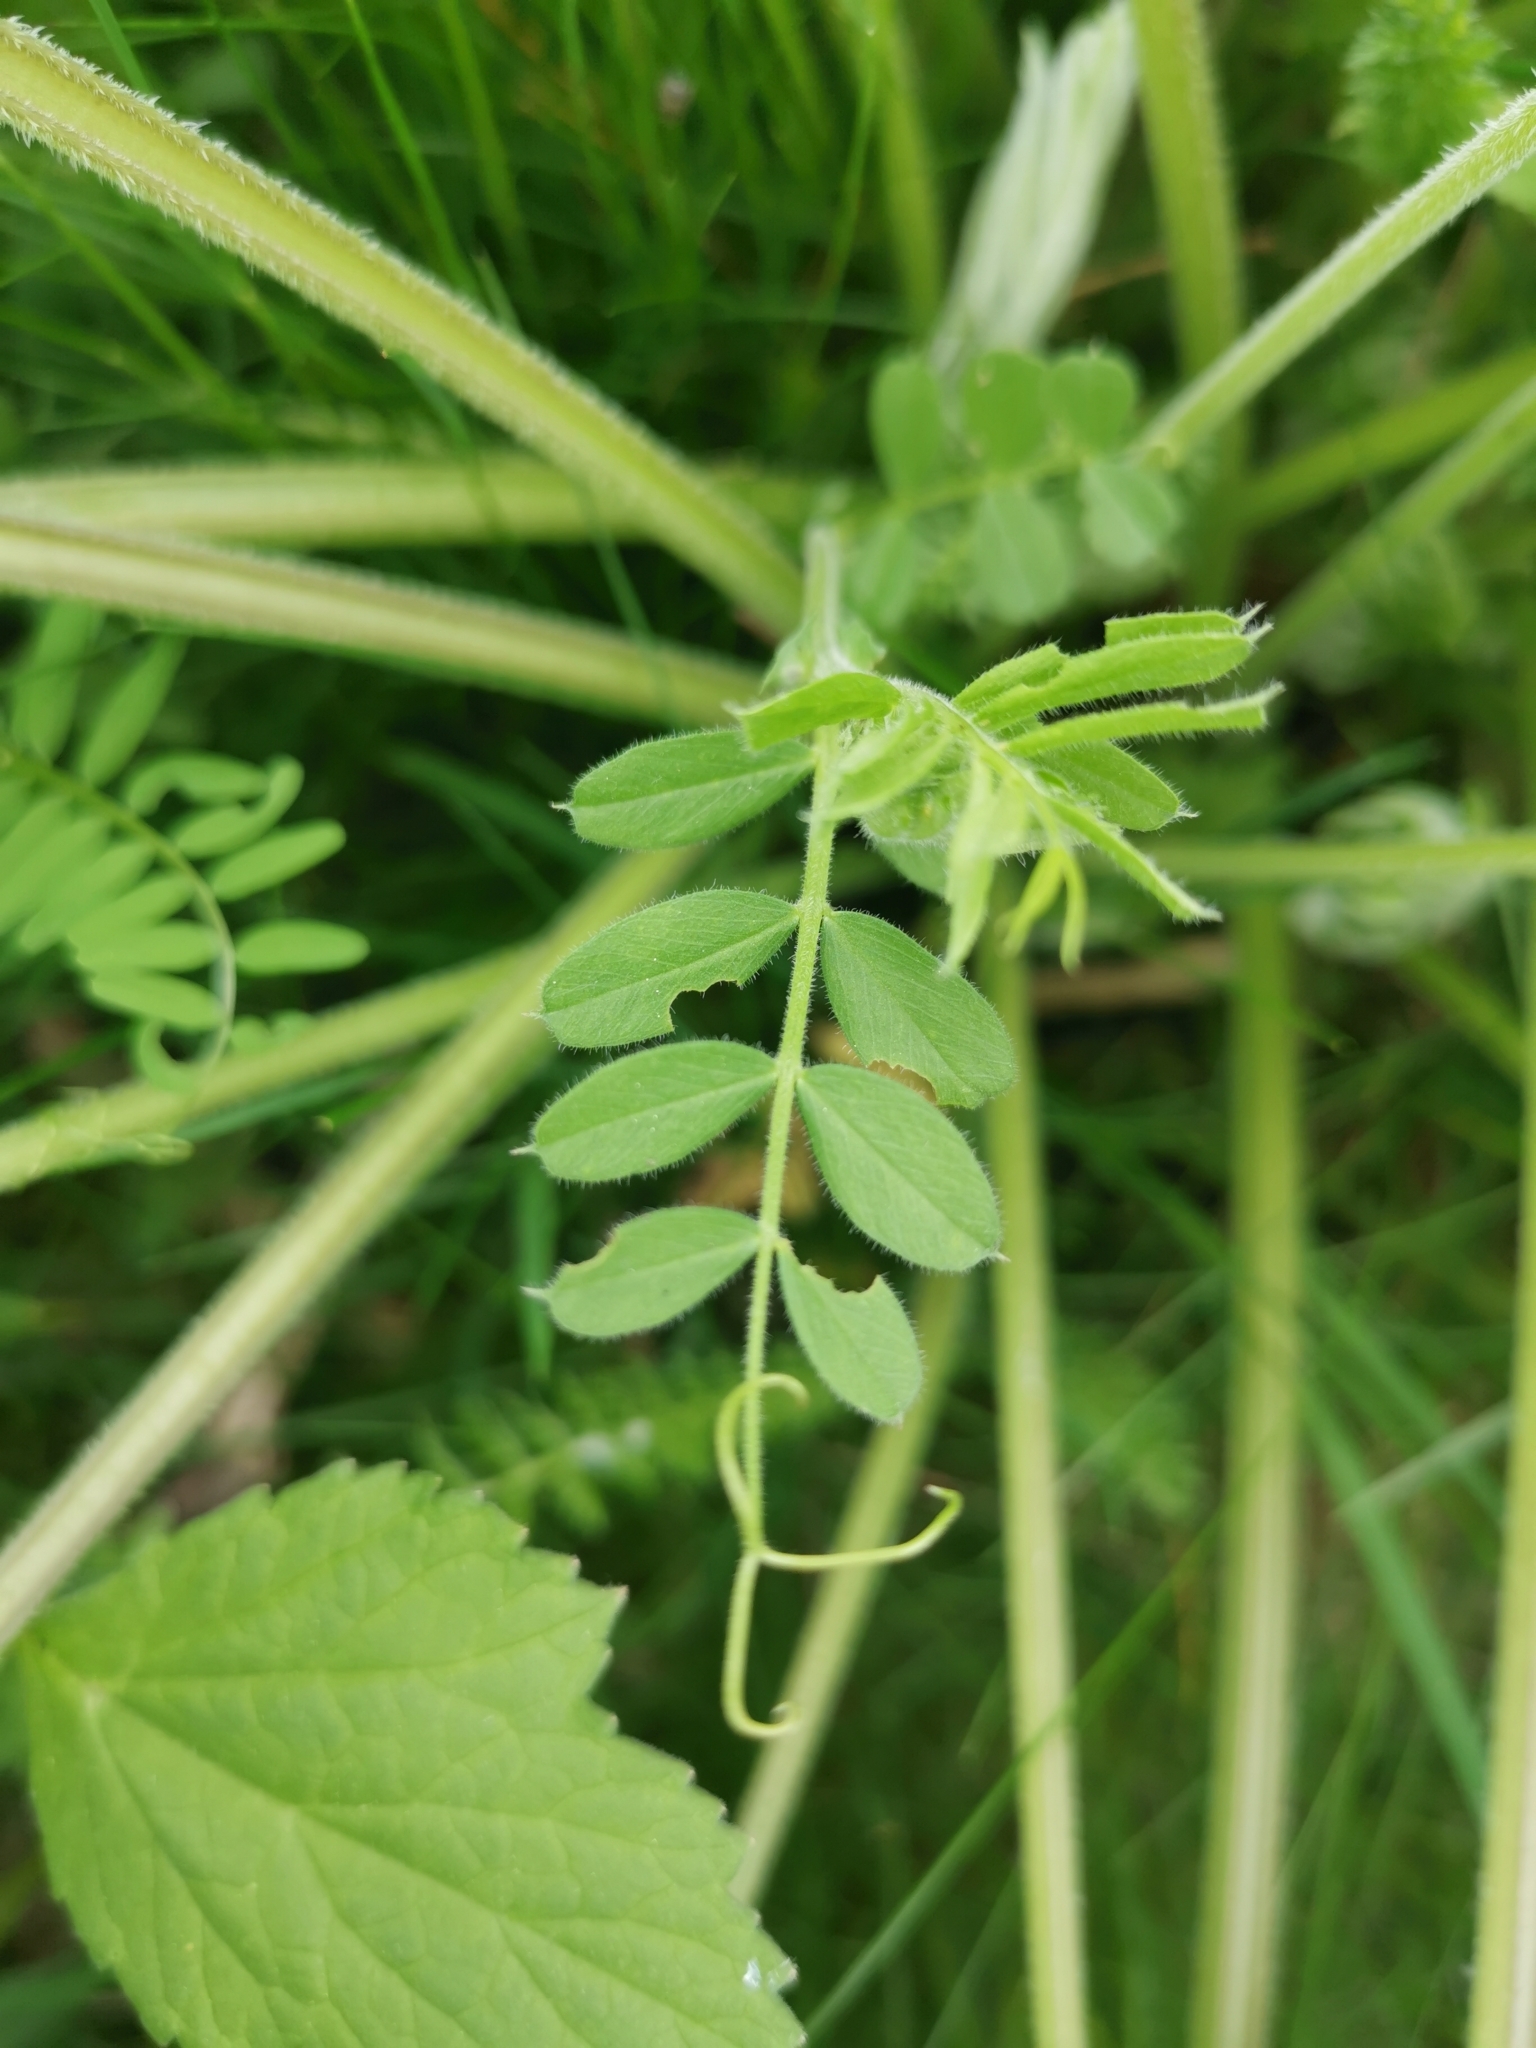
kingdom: Plantae
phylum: Tracheophyta
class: Magnoliopsida
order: Fabales
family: Fabaceae
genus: Vicia
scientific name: Vicia sativa
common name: Garden vetch
